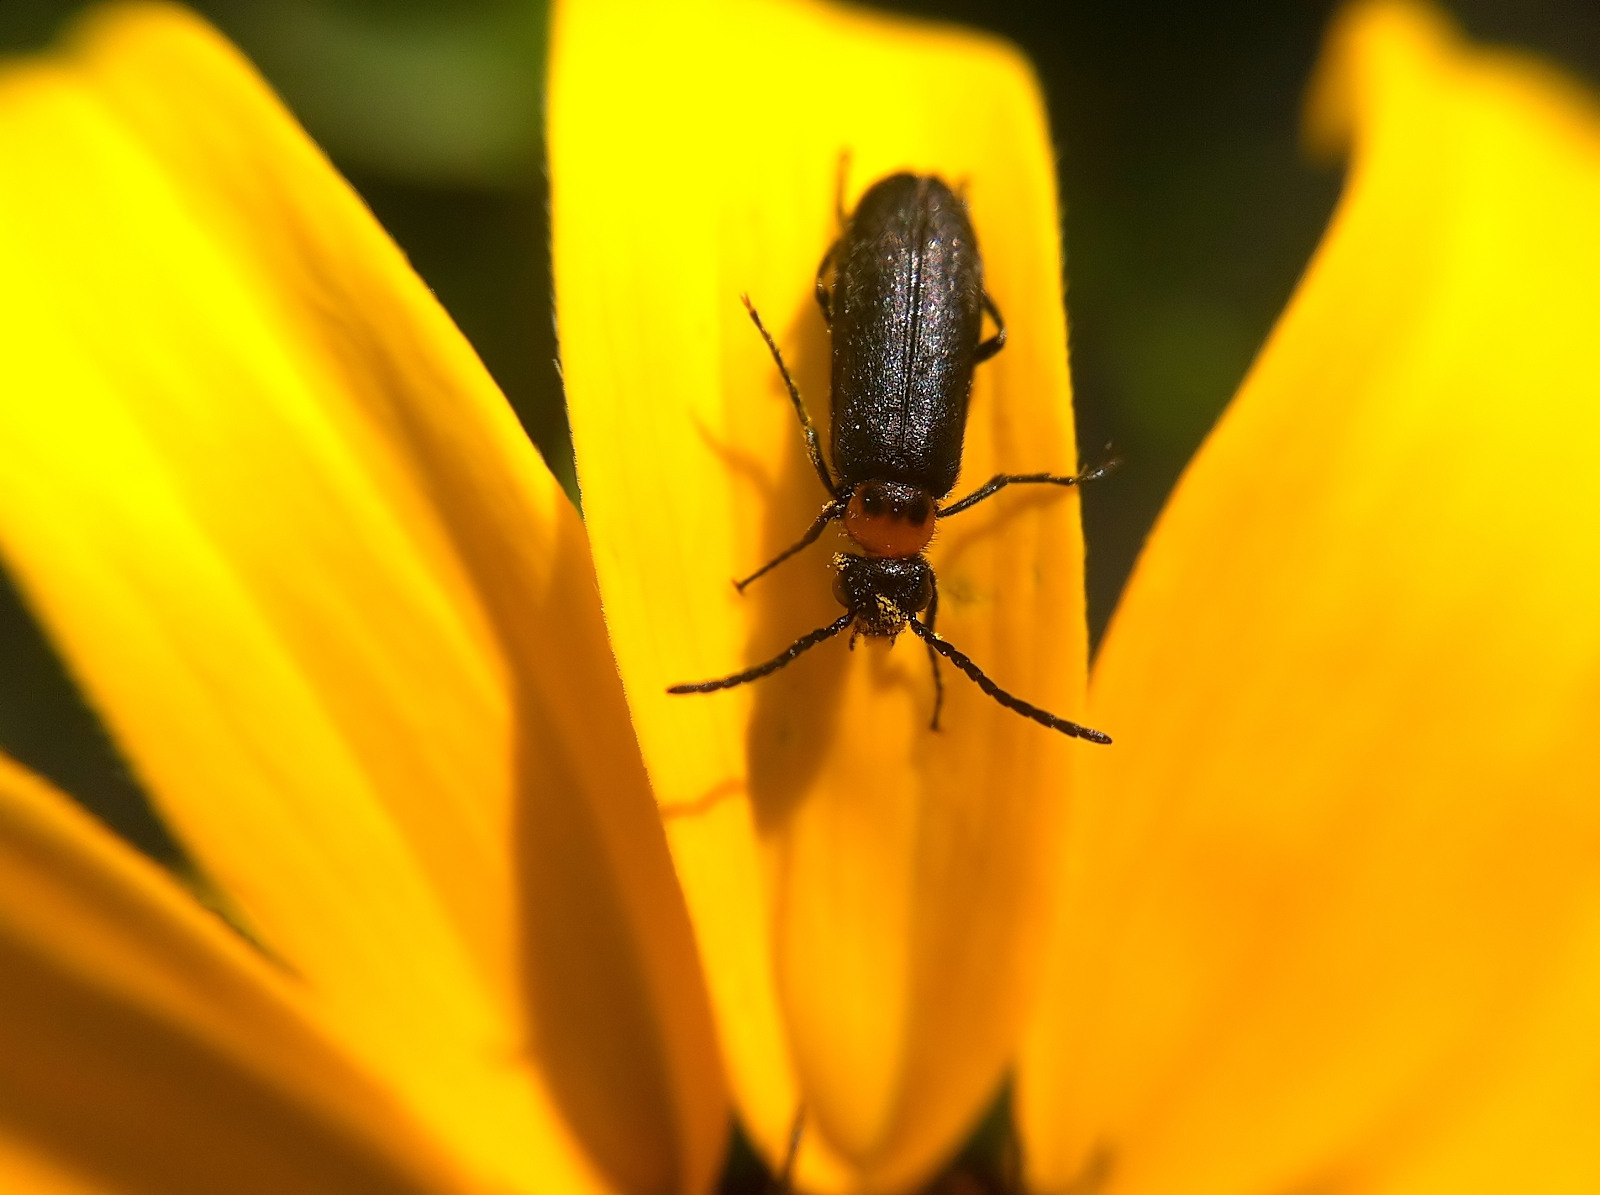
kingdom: Animalia
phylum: Arthropoda
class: Insecta
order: Coleoptera
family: Meloidae
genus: Nemognatha
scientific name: Nemognatha nemorensis
